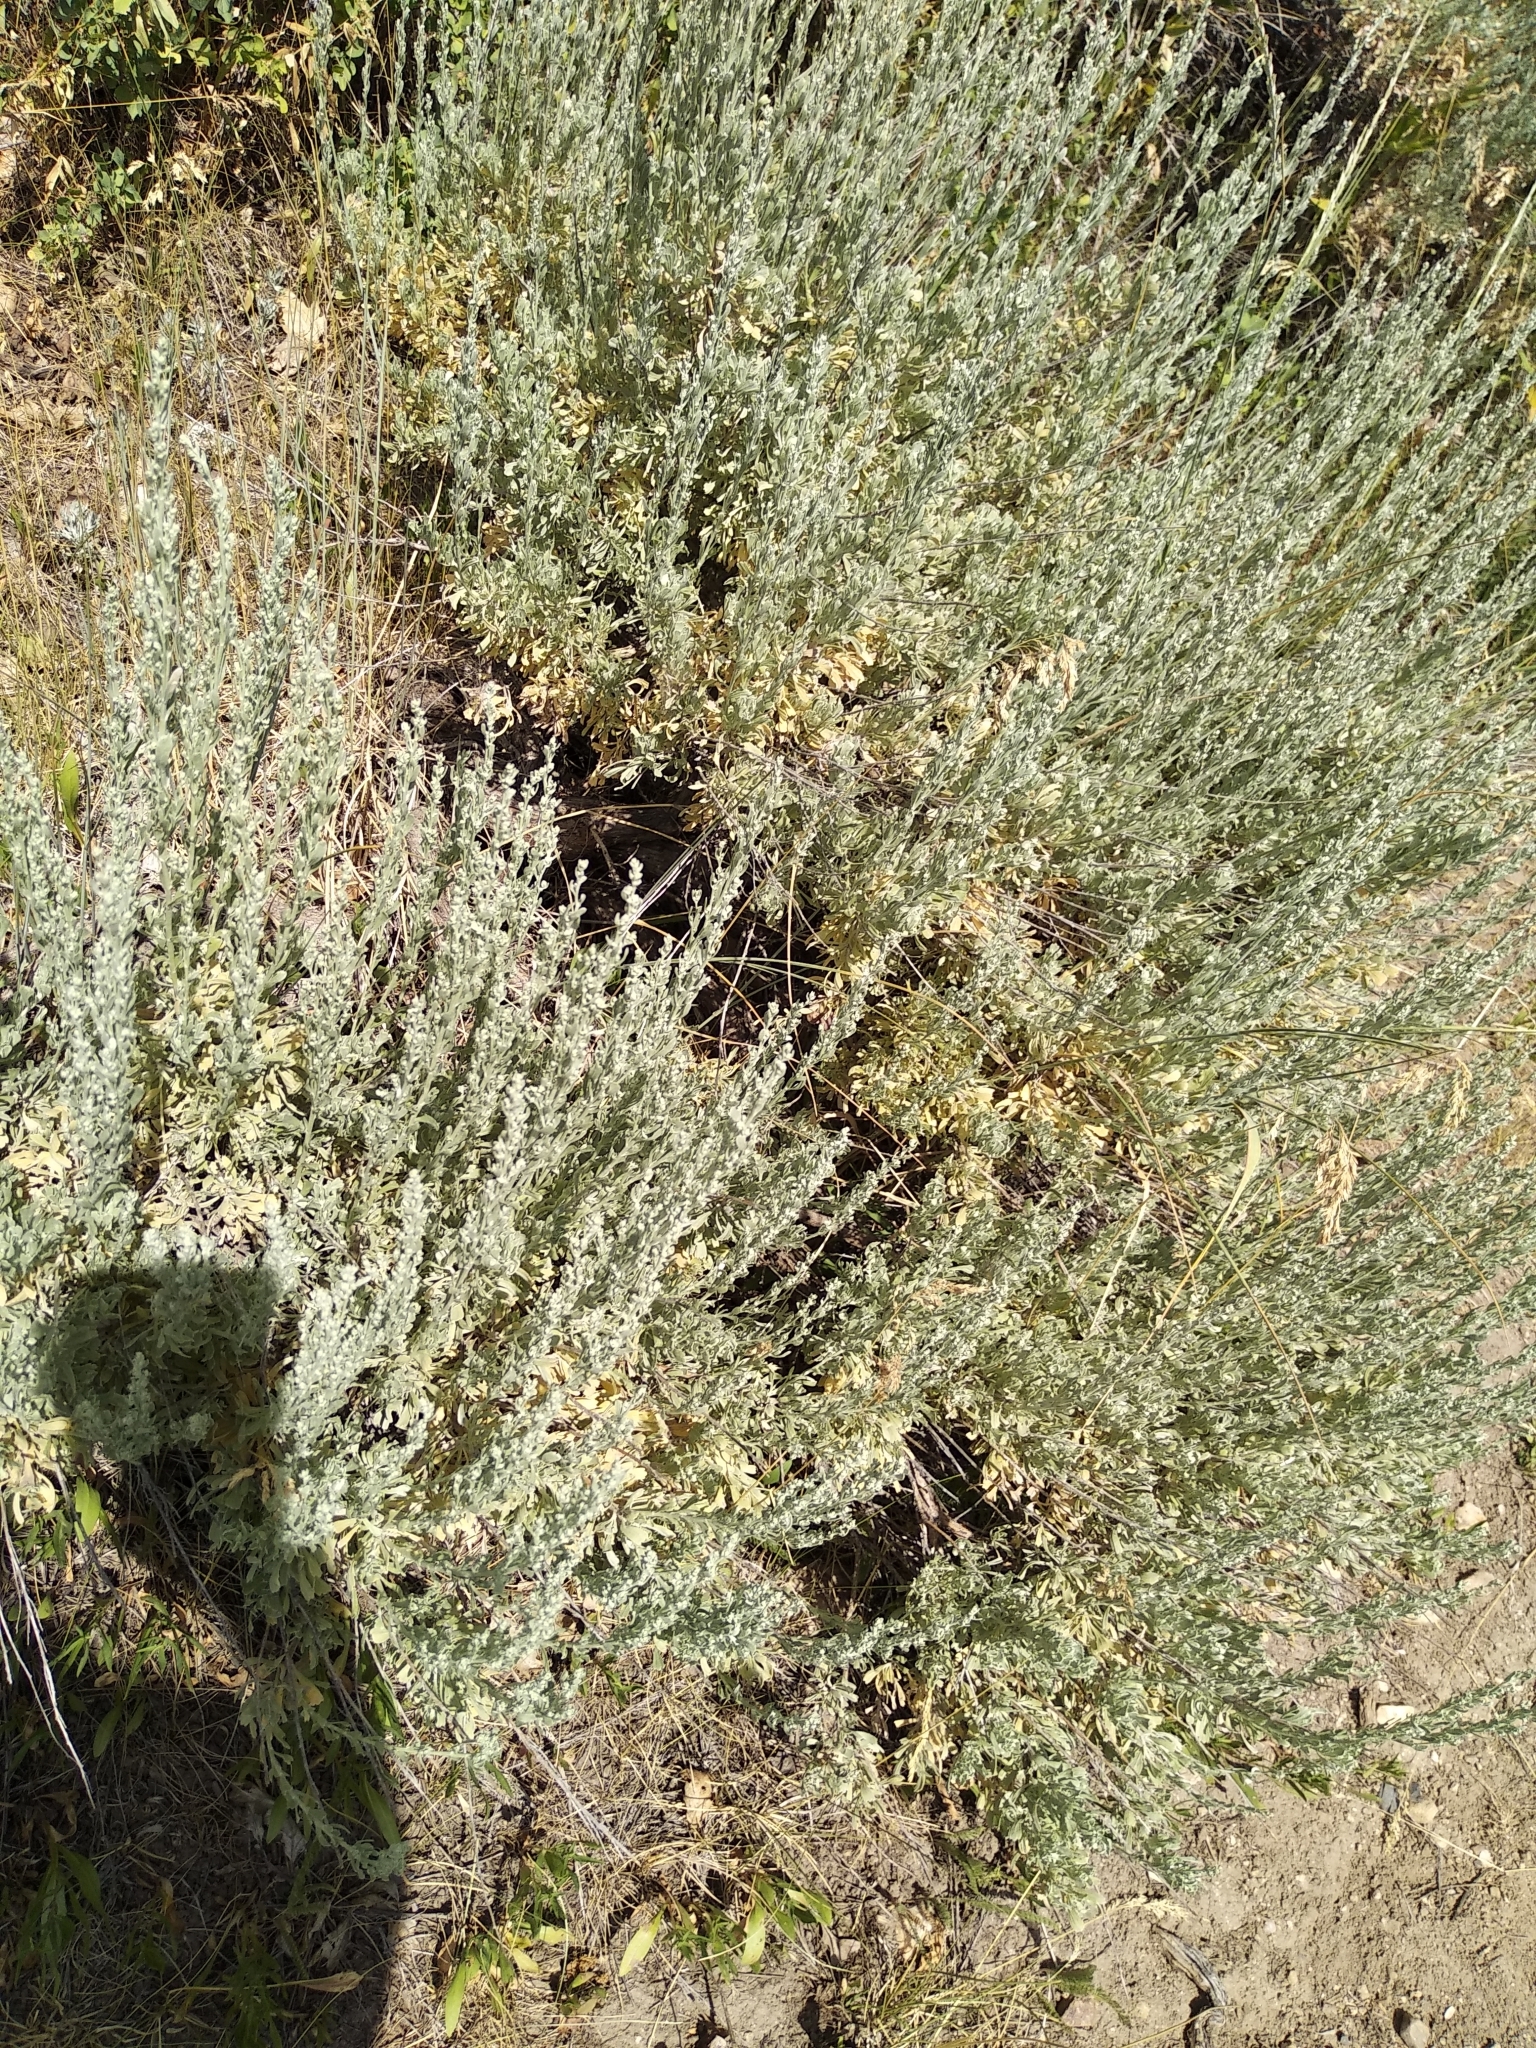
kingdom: Plantae
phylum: Tracheophyta
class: Magnoliopsida
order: Asterales
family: Asteraceae
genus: Artemisia
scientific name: Artemisia tridentata
